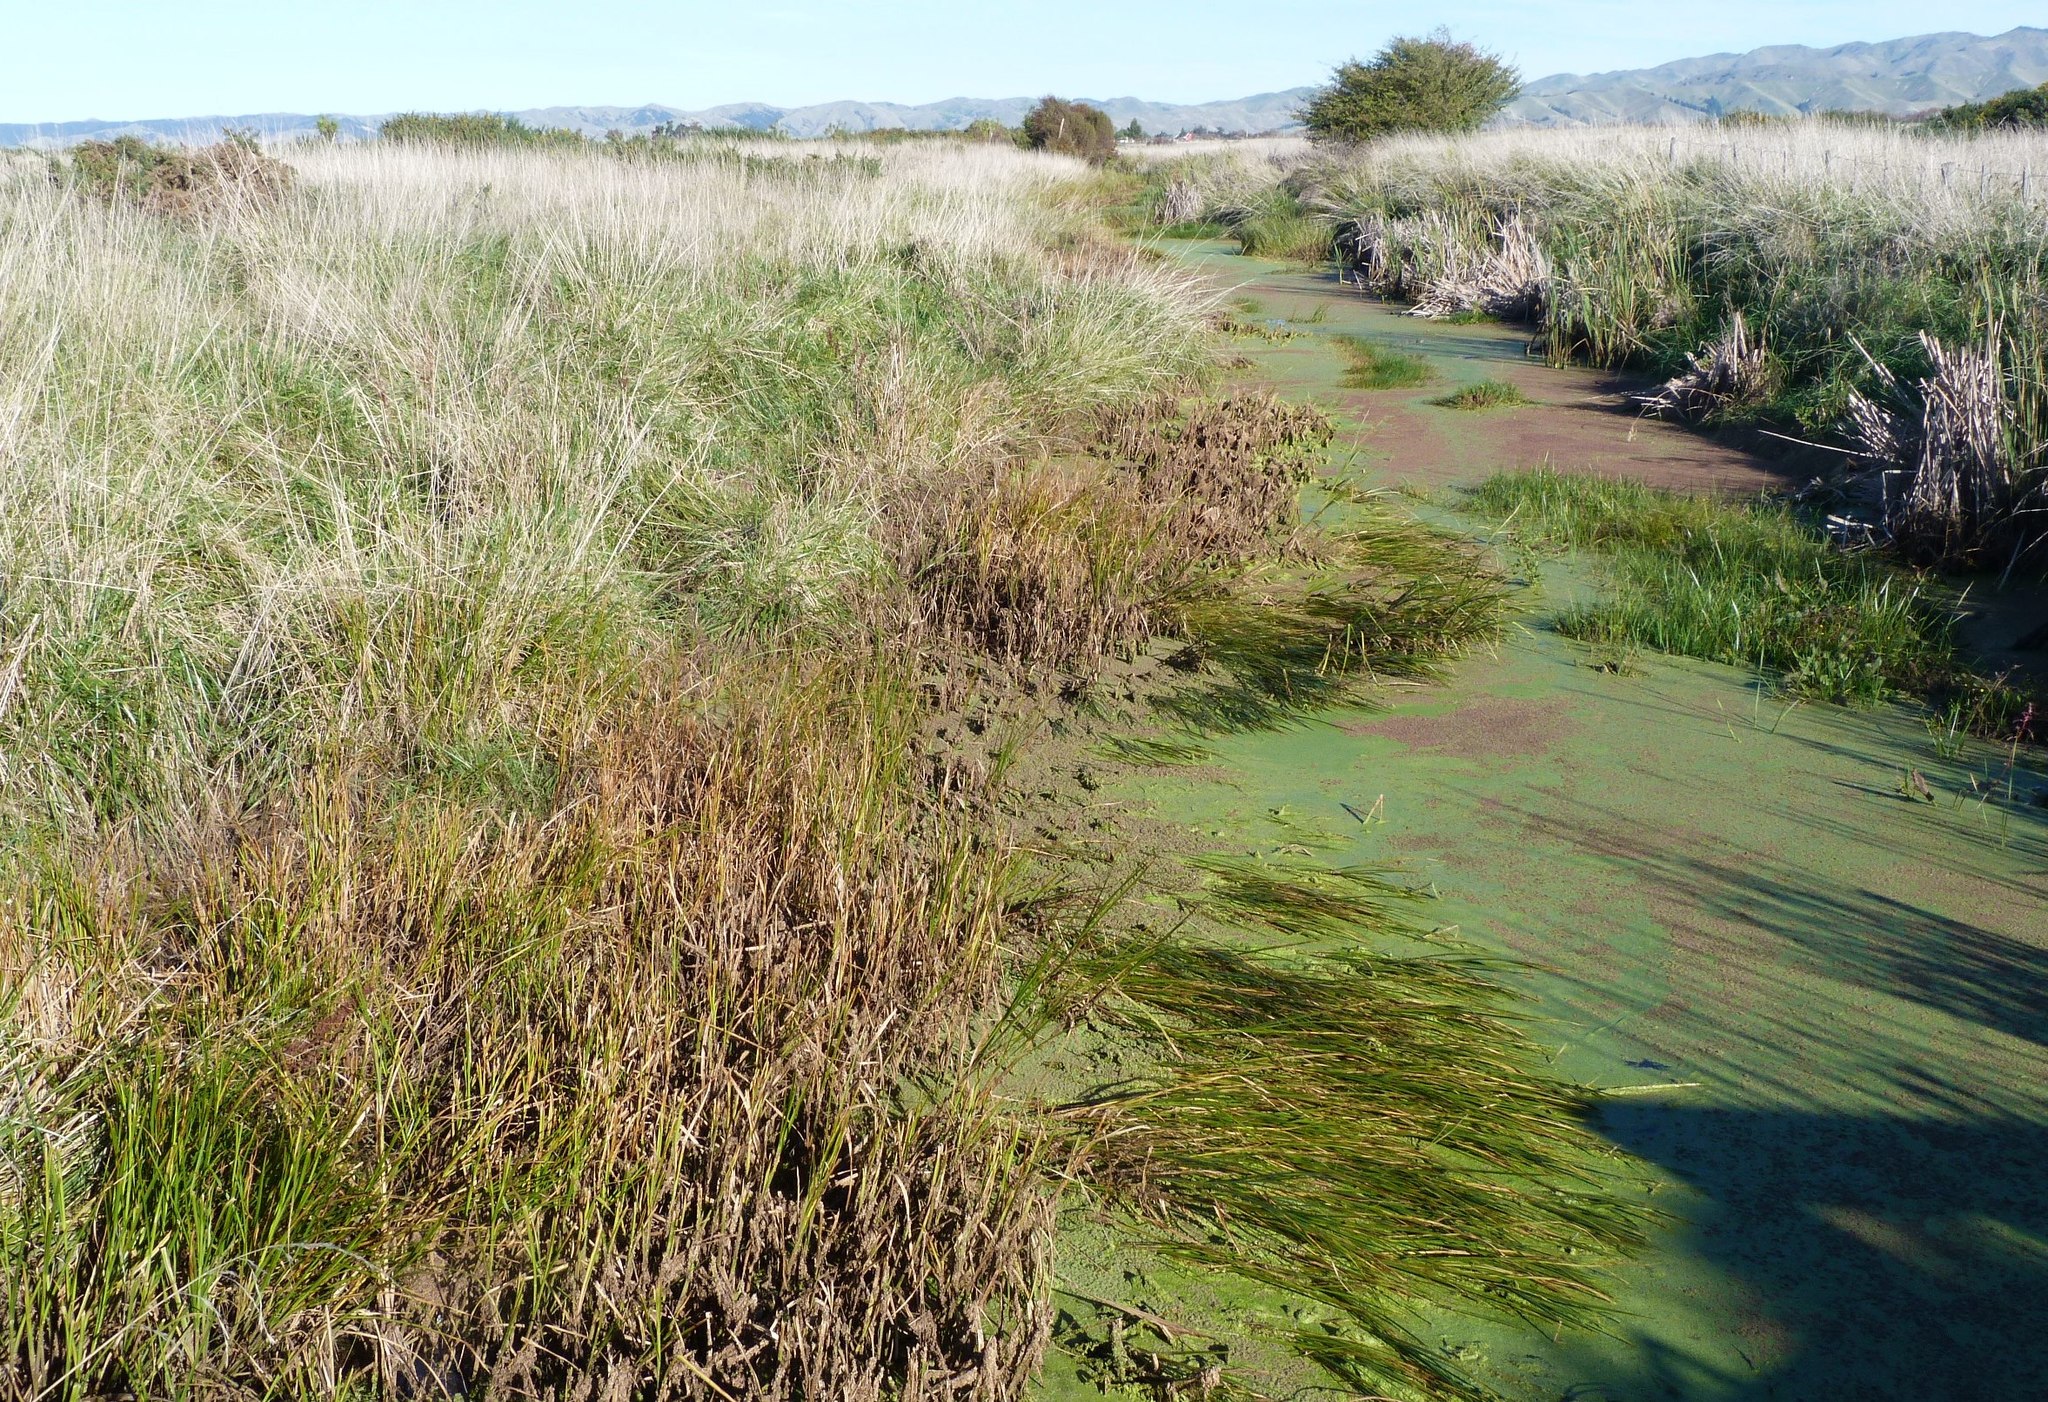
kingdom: Plantae
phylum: Tracheophyta
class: Liliopsida
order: Poales
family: Cyperaceae
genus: Bolboschoenus
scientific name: Bolboschoenus caldwellii
